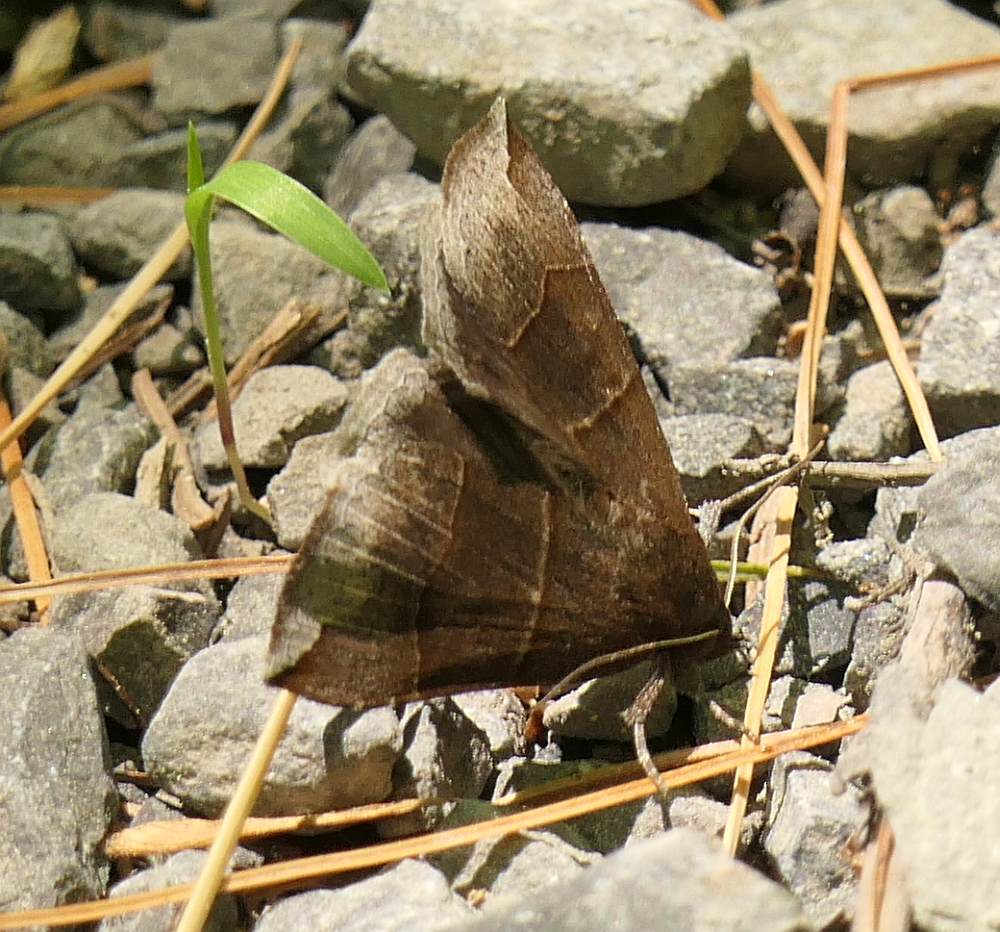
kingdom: Animalia
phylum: Arthropoda
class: Insecta
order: Lepidoptera
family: Erebidae
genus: Parallelia
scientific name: Parallelia bistriaris
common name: Maple looper moth
